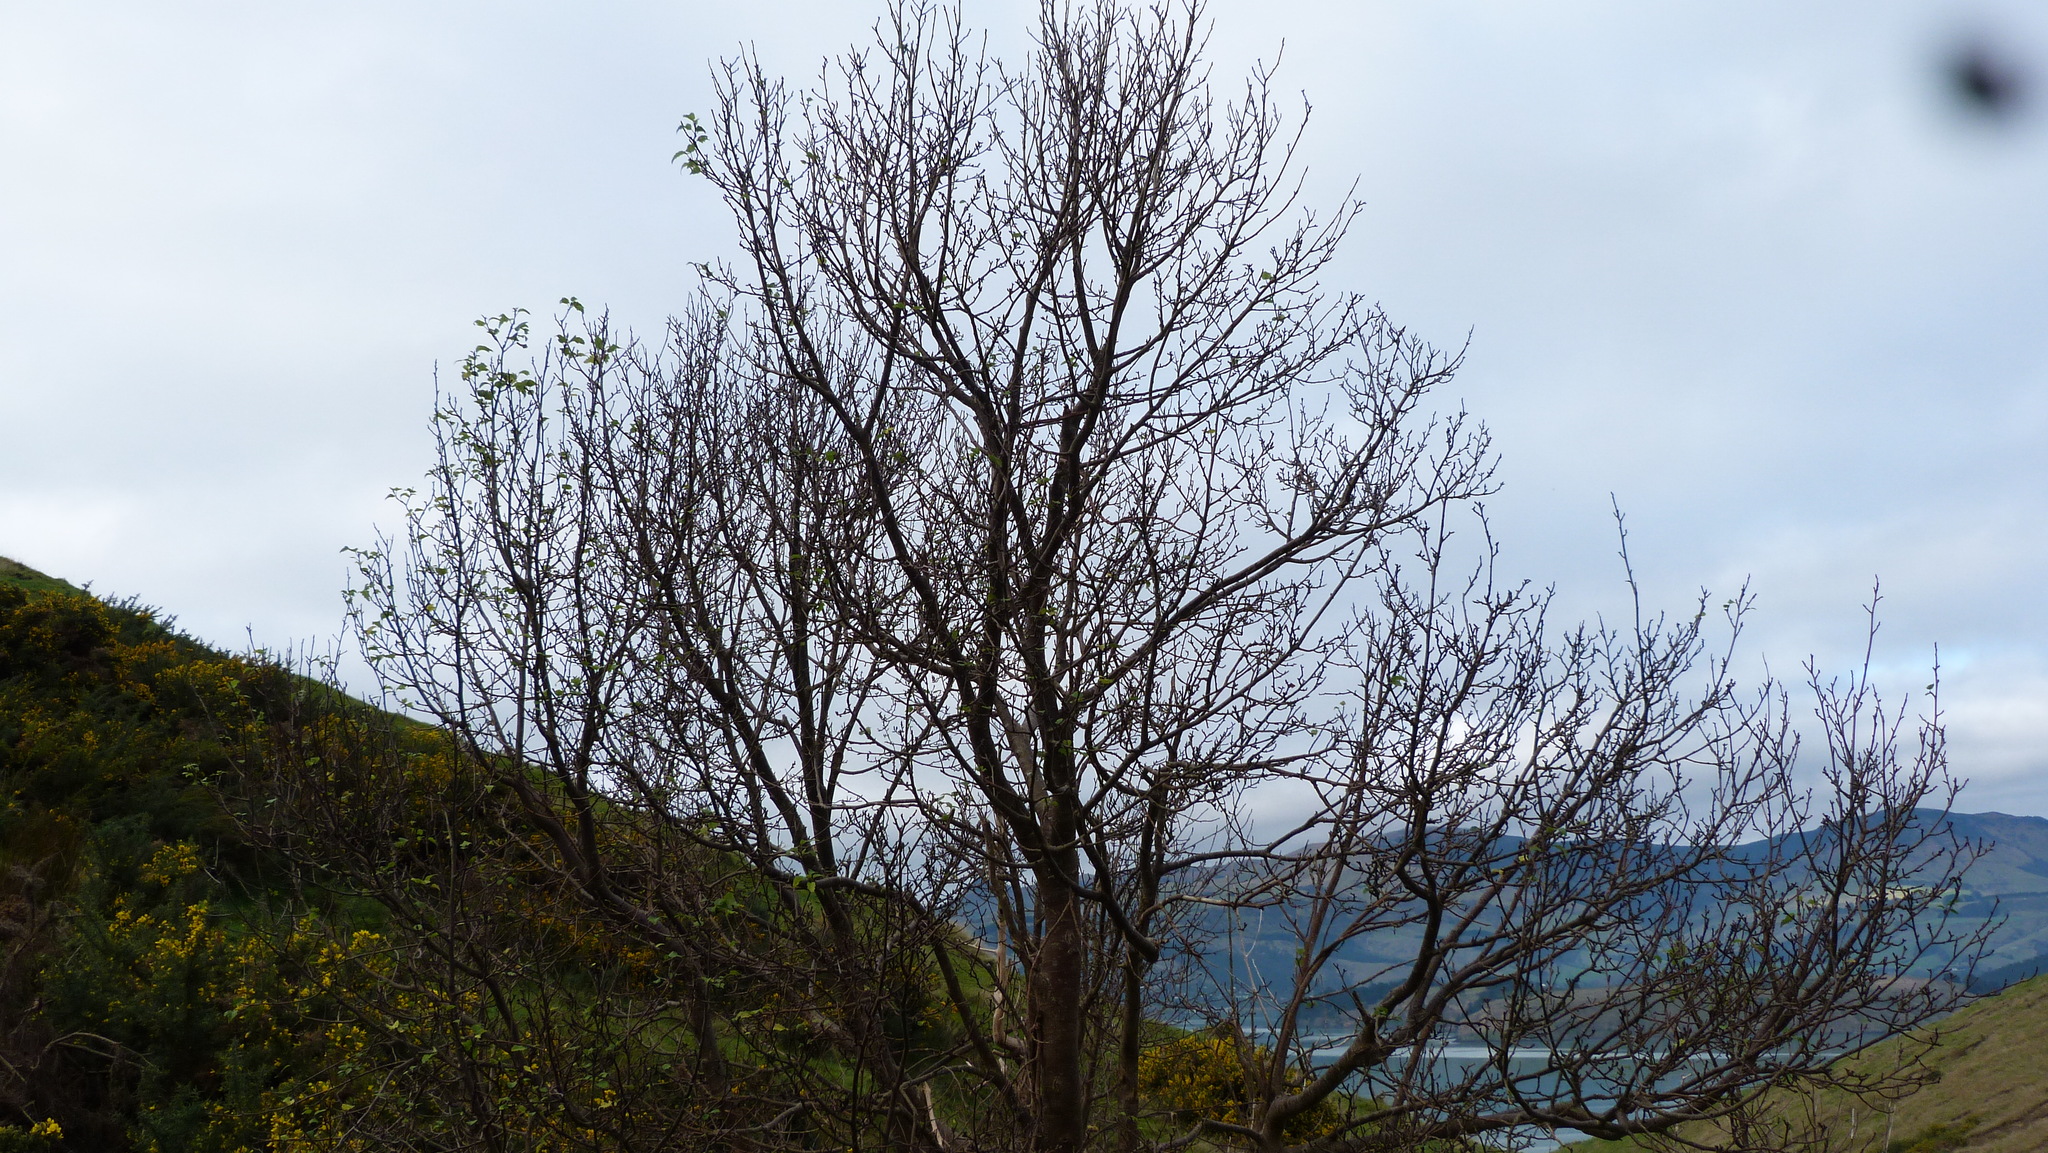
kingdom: Plantae
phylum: Tracheophyta
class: Magnoliopsida
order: Malvales
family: Malvaceae
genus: Plagianthus
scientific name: Plagianthus regius
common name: Manatu
